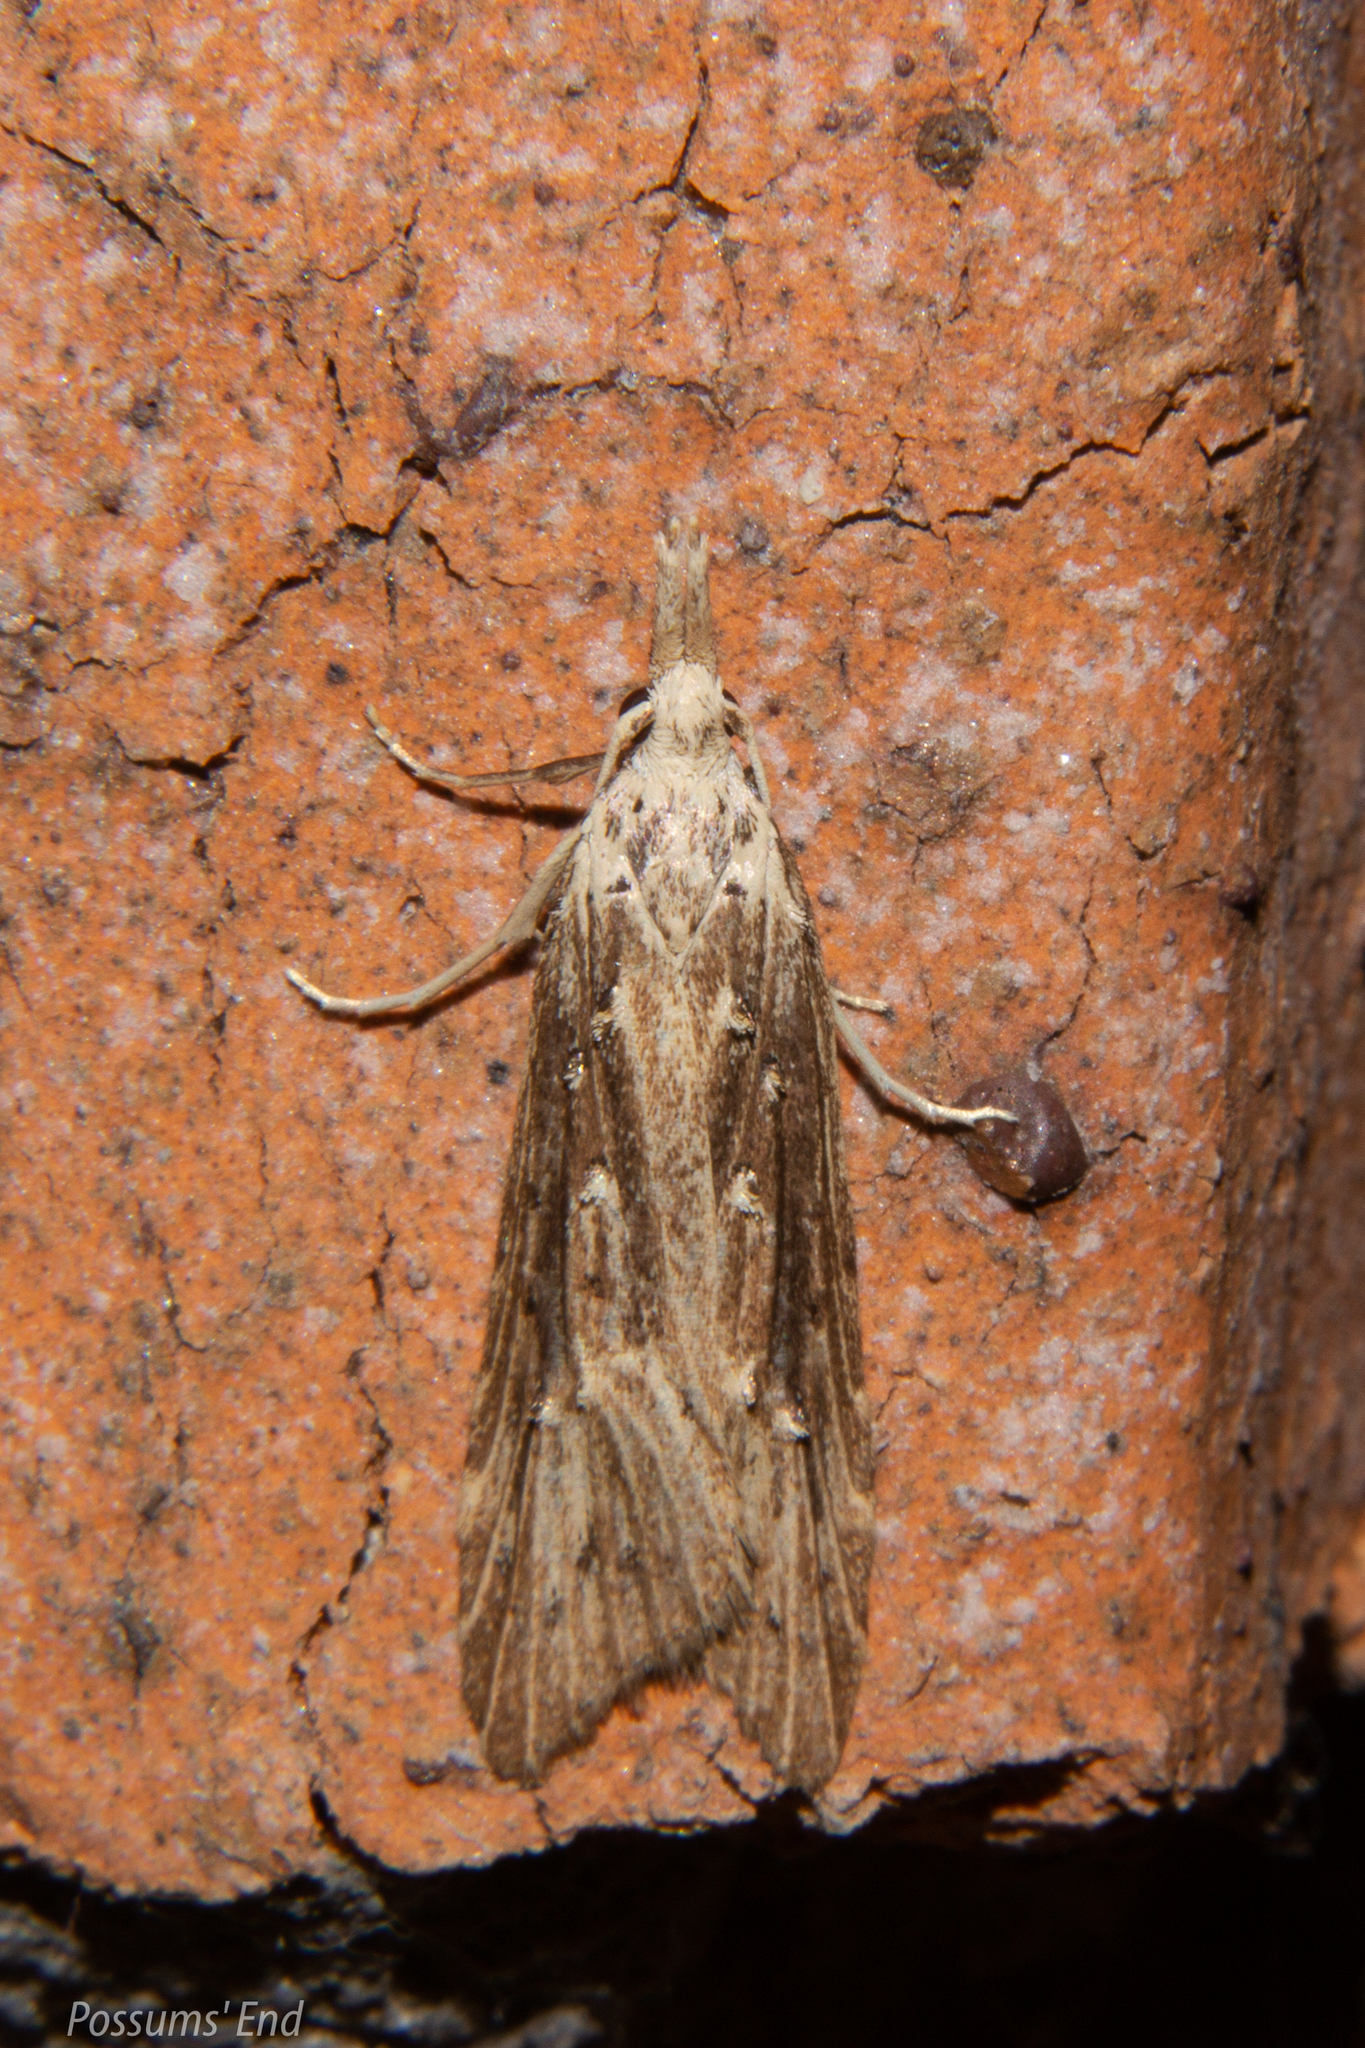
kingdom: Animalia
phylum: Arthropoda
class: Insecta
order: Lepidoptera
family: Carposinidae
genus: Carposina
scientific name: Carposina Heterocrossa exochana
